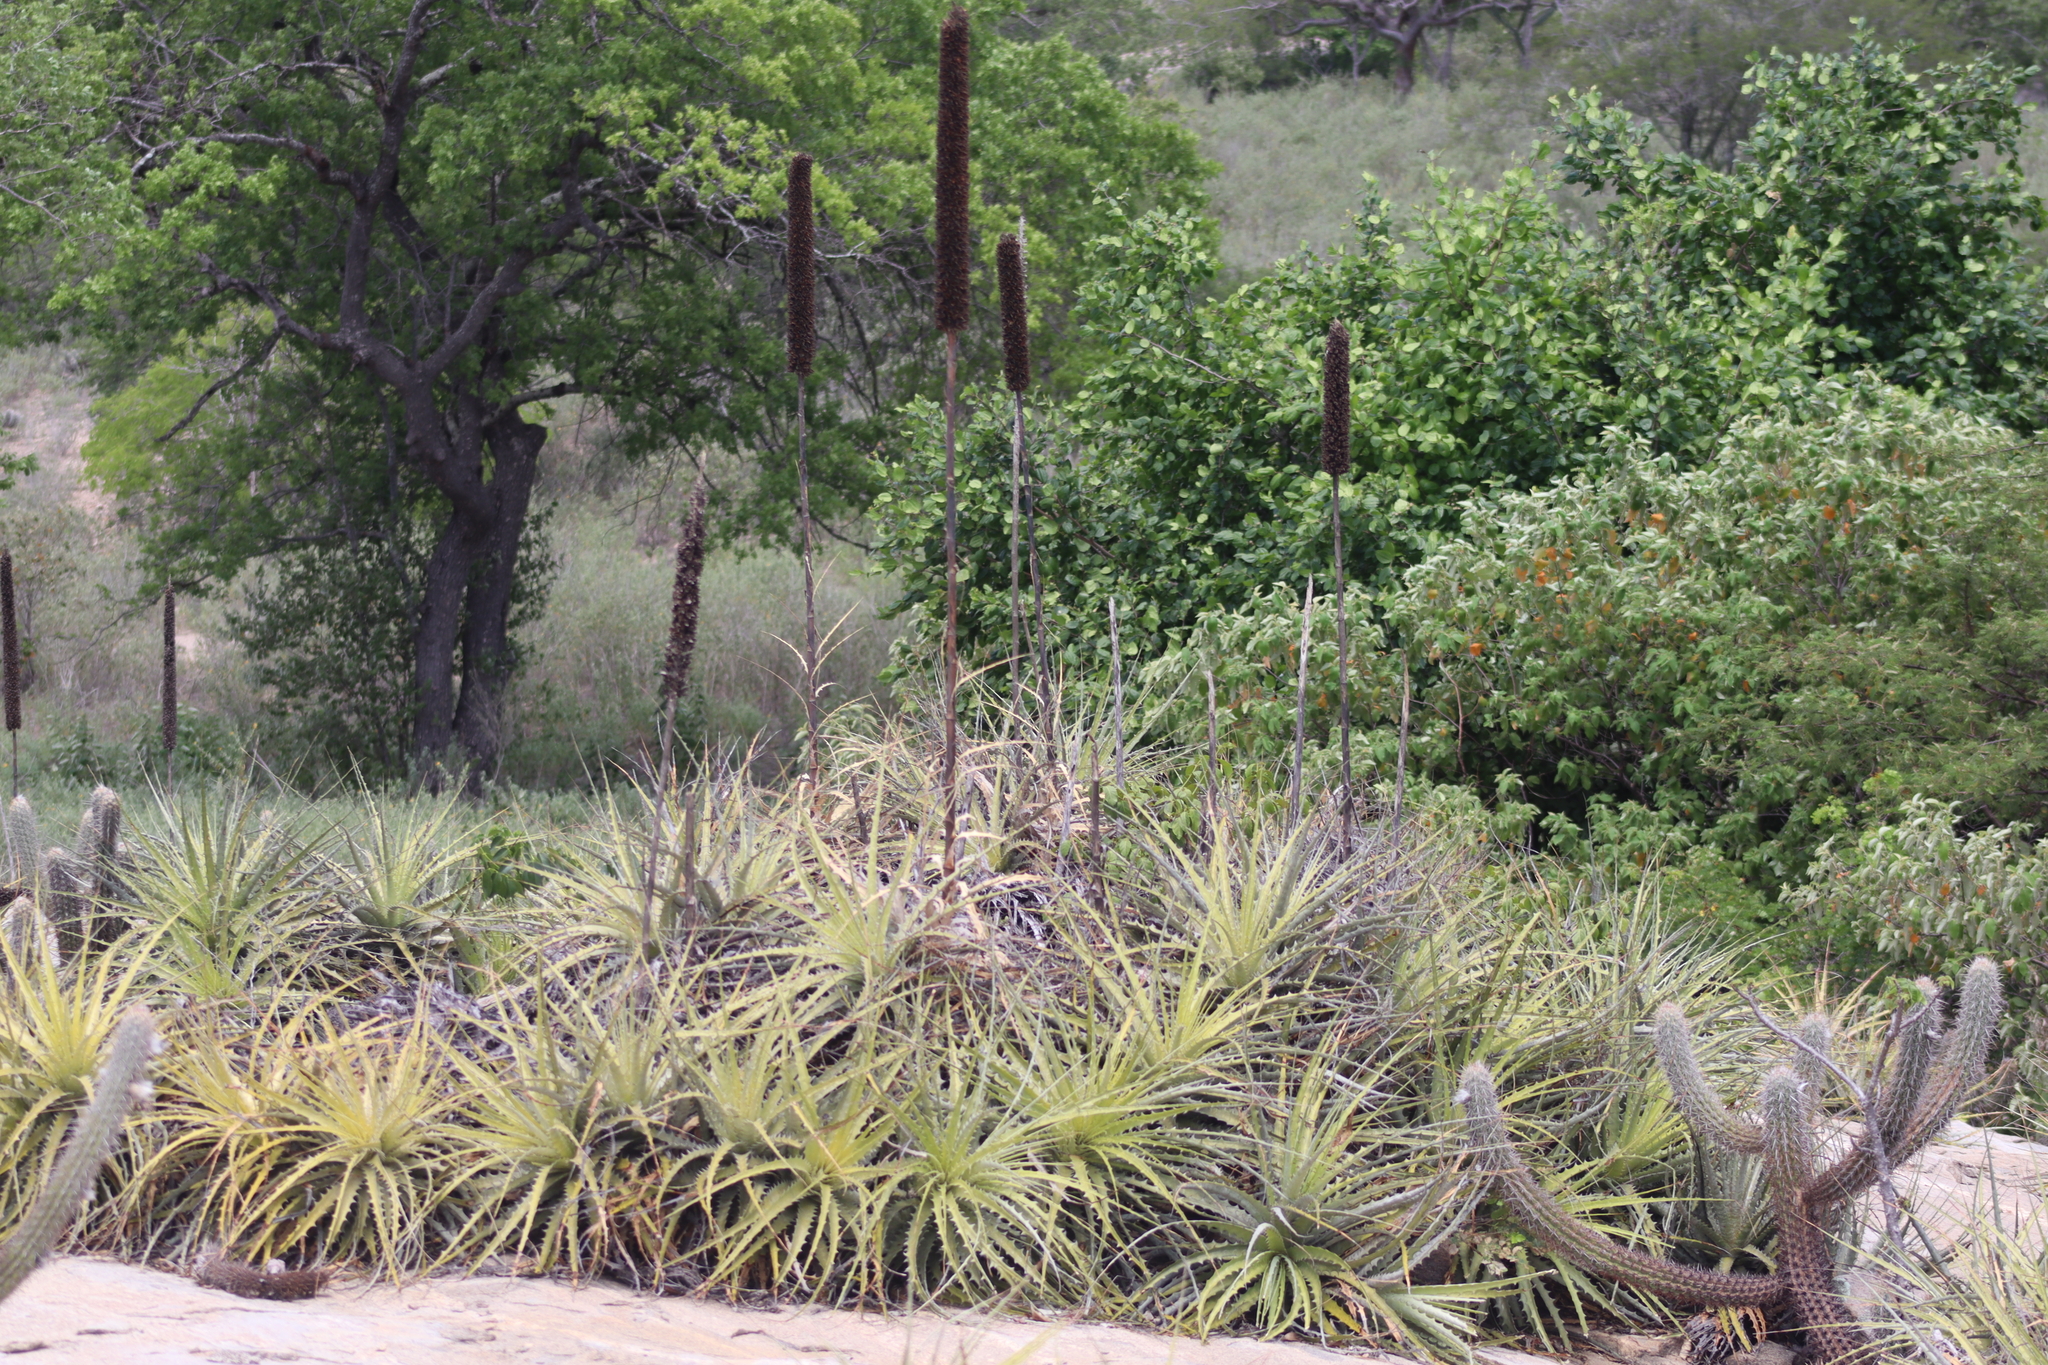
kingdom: Plantae
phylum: Tracheophyta
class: Liliopsida
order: Poales
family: Bromeliaceae
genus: Encholirium
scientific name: Encholirium spectabile
